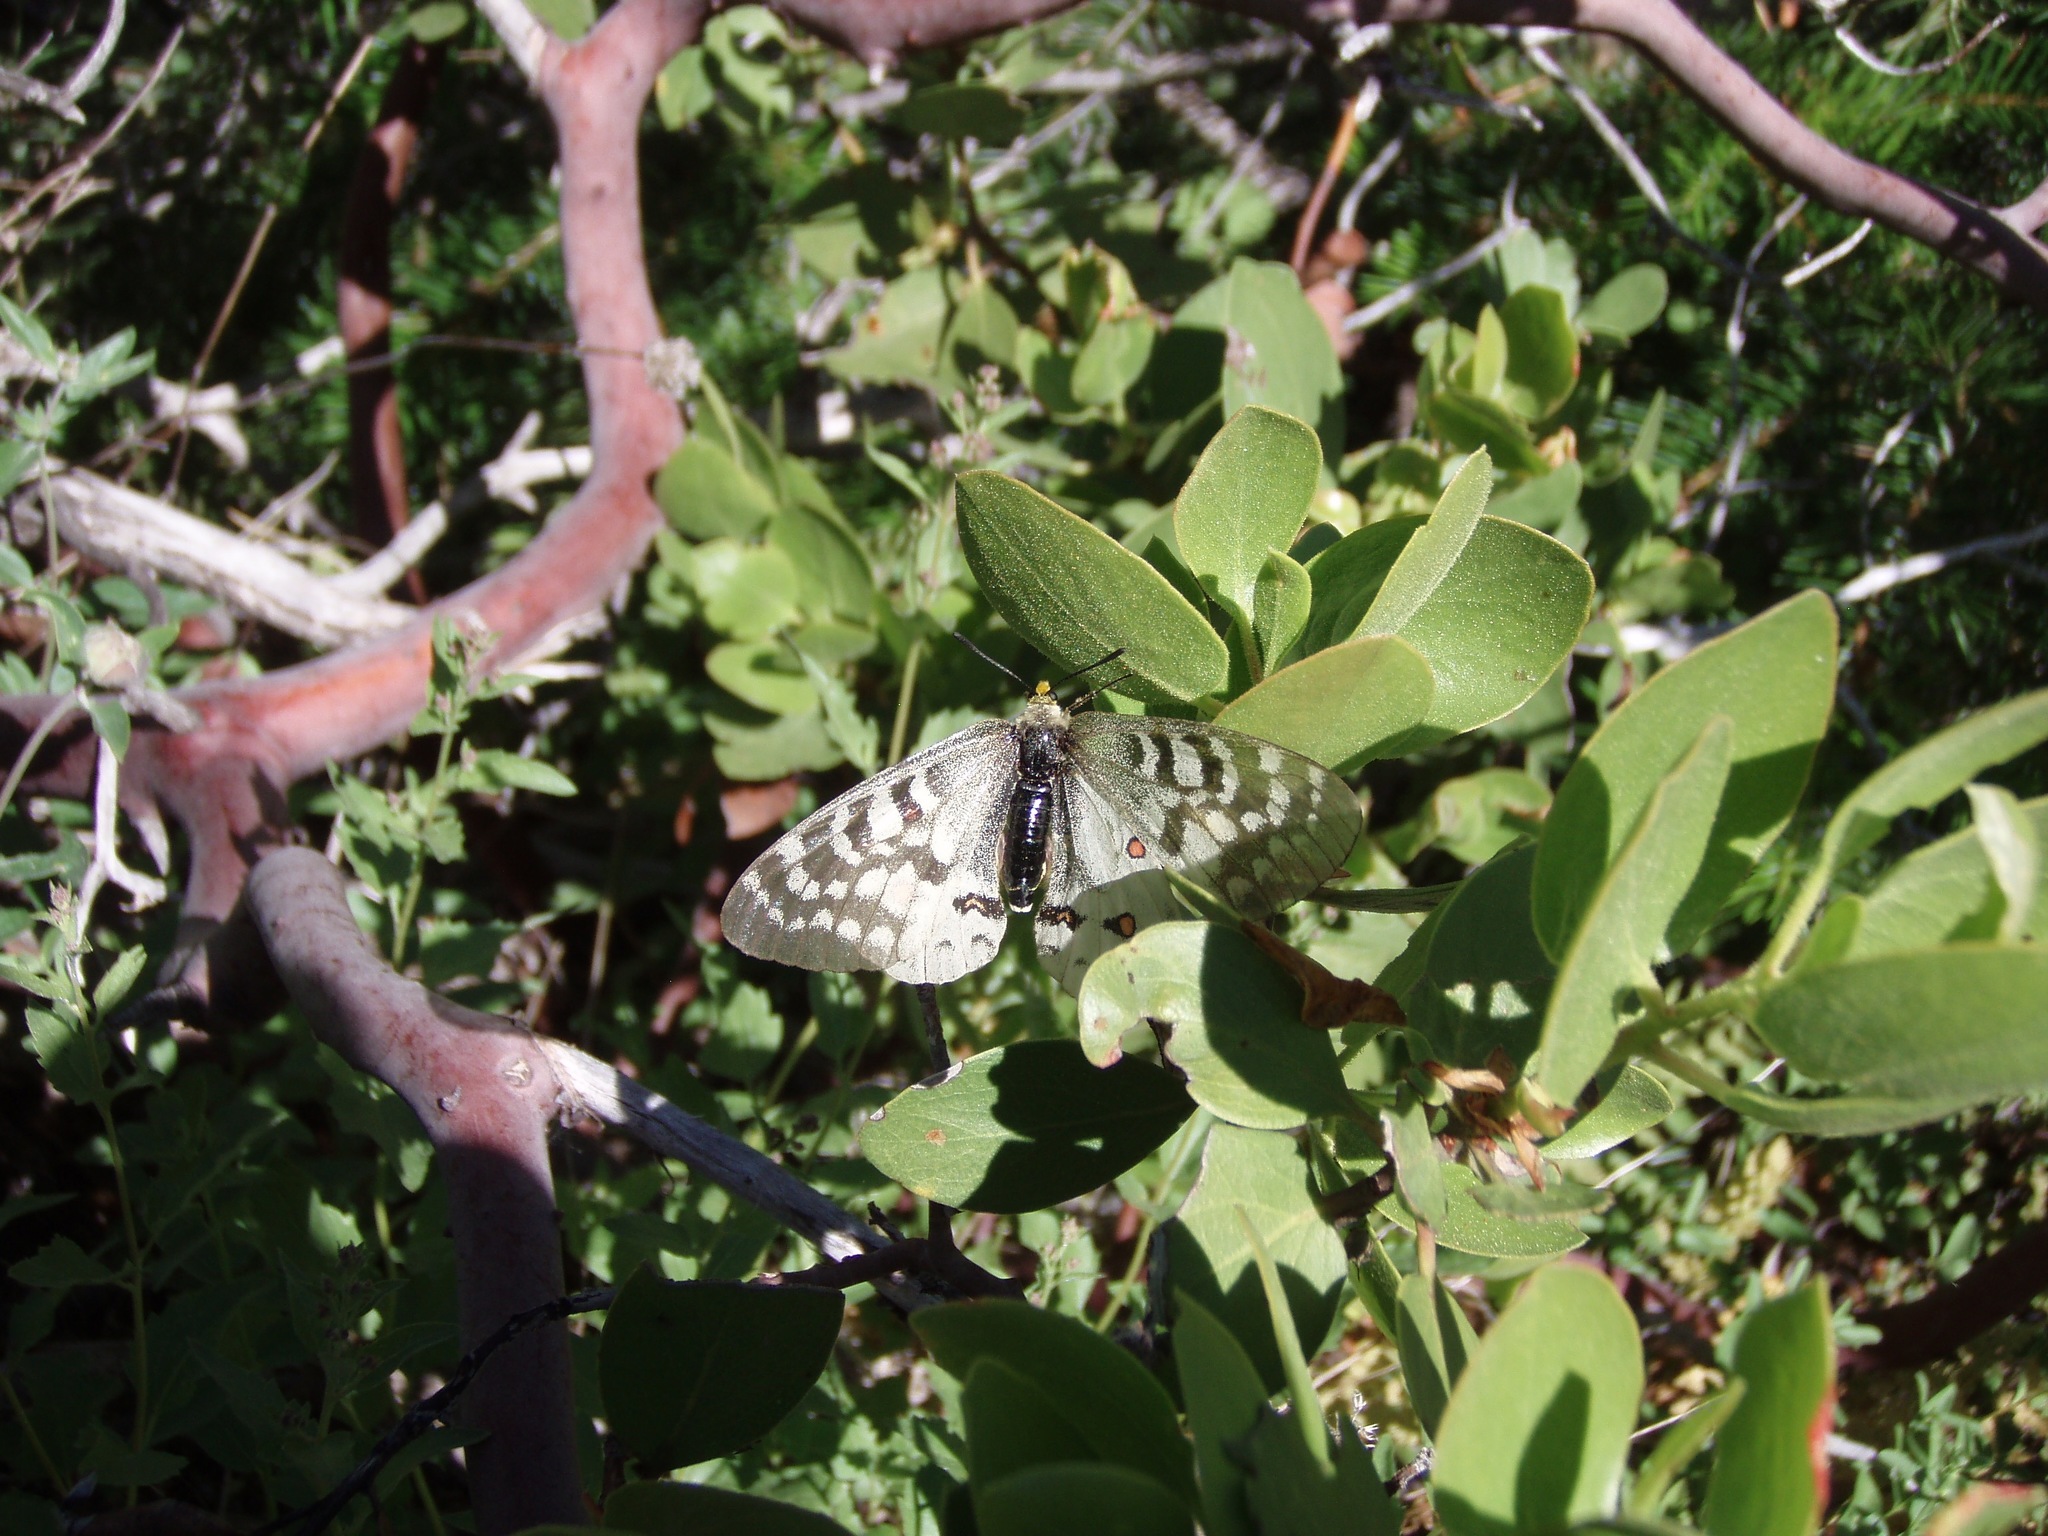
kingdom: Animalia
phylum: Arthropoda
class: Insecta
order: Lepidoptera
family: Papilionidae
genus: Parnassius
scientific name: Parnassius clodius
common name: American apollo
